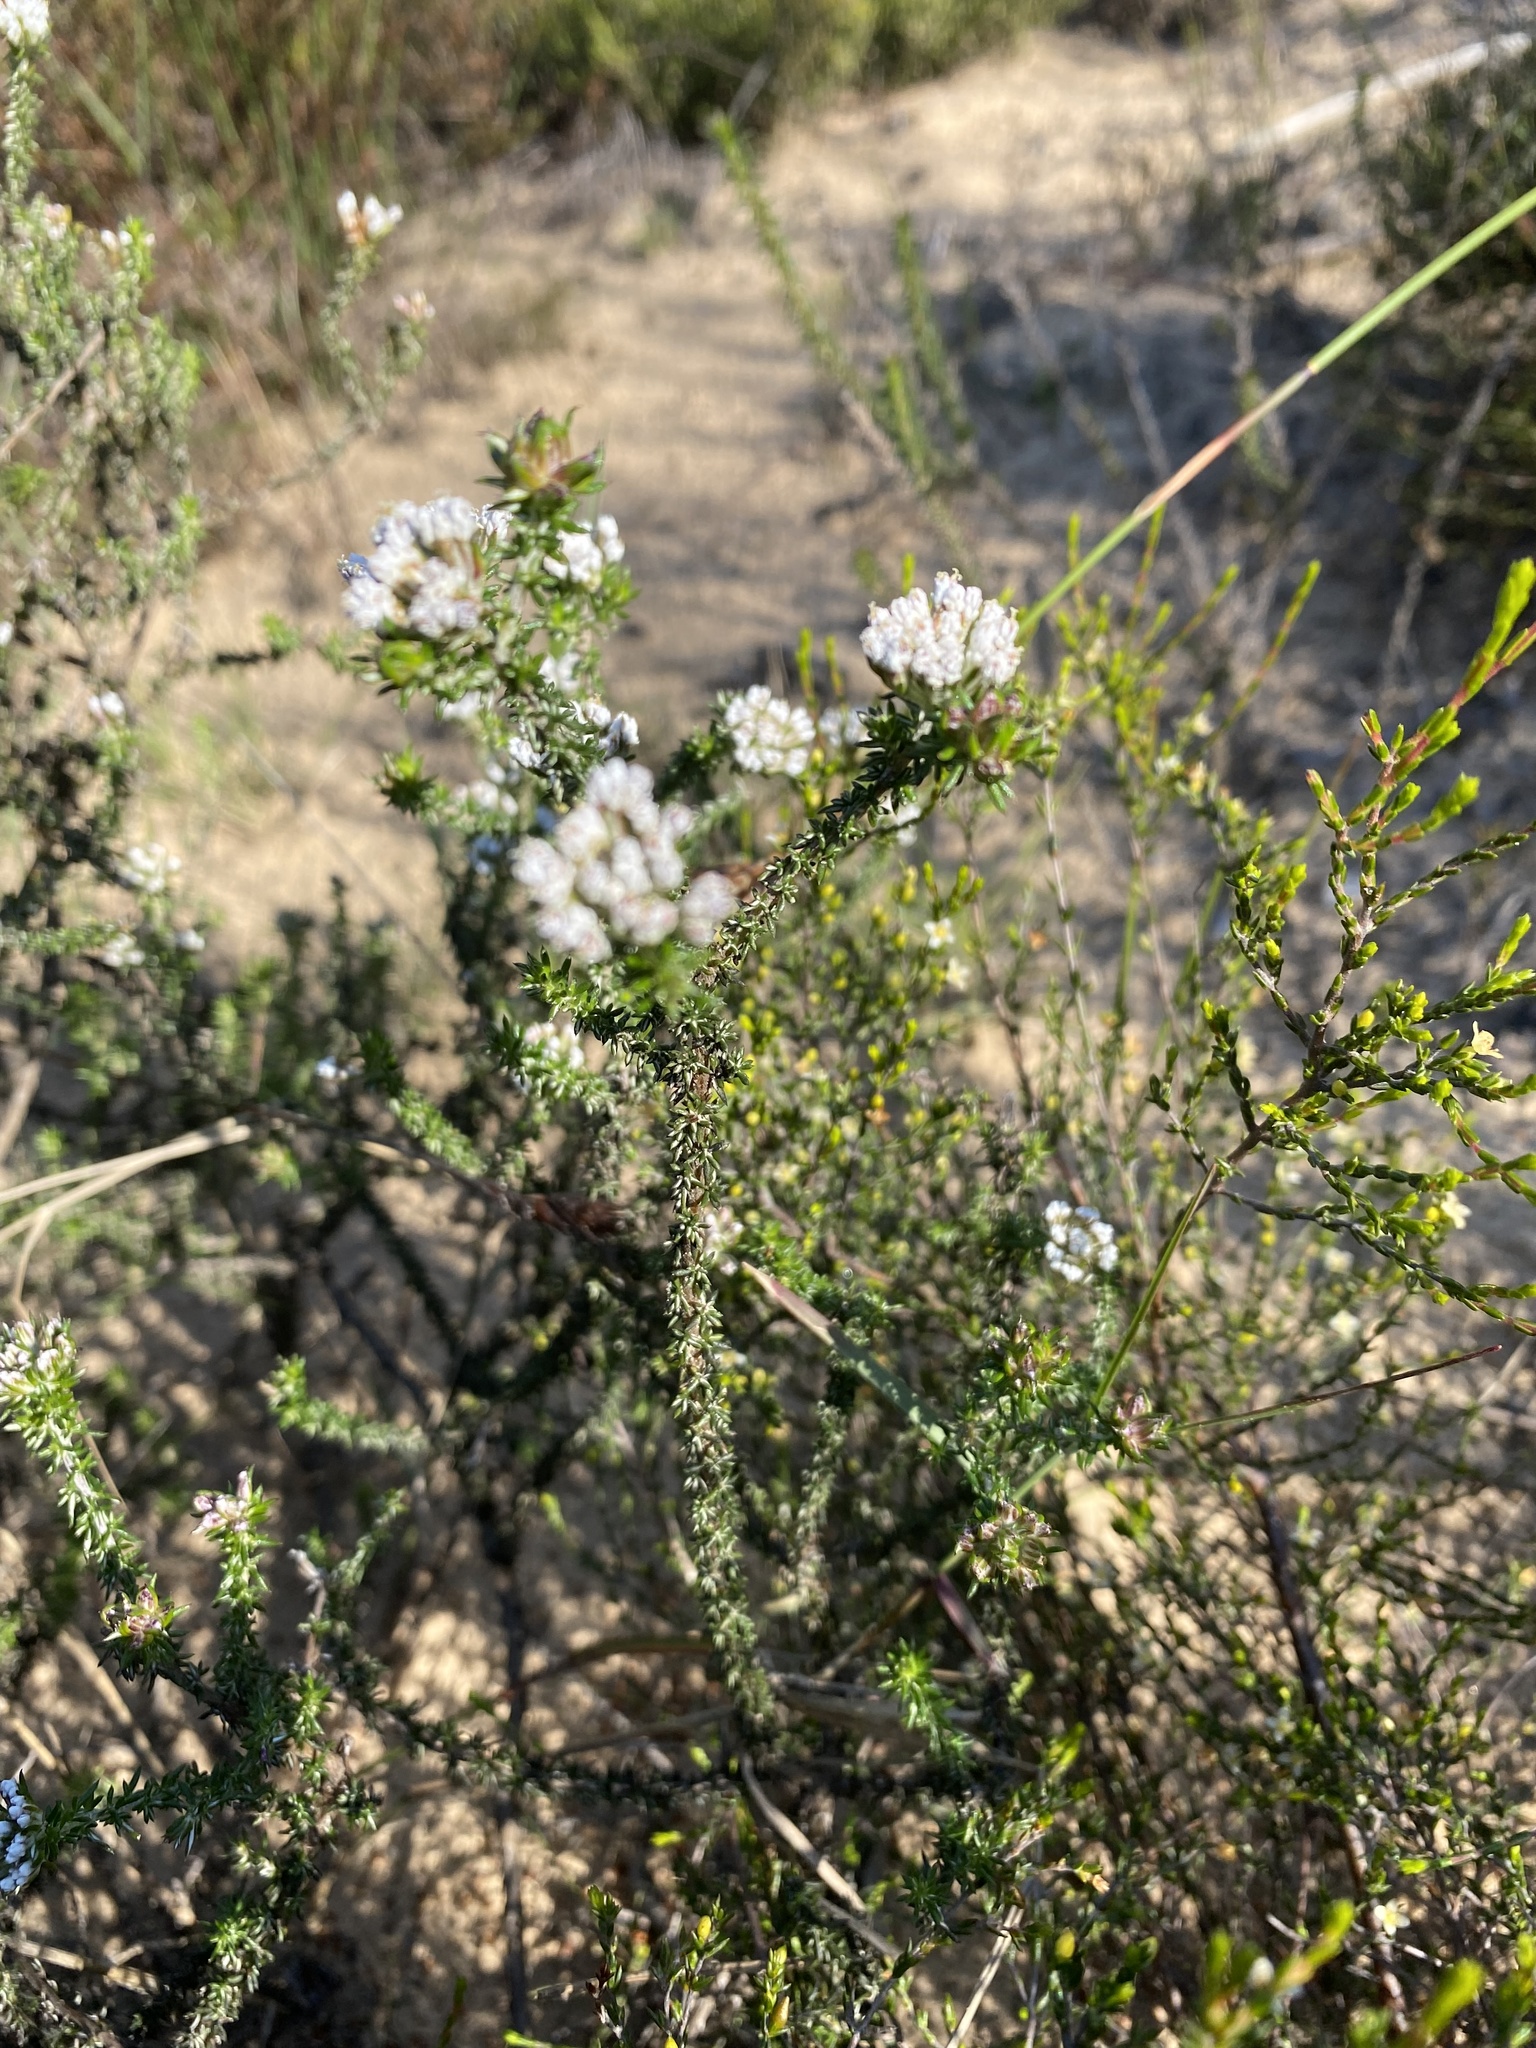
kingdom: Plantae
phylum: Tracheophyta
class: Magnoliopsida
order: Asterales
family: Asteraceae
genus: Metalasia
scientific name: Metalasia brevifolia
